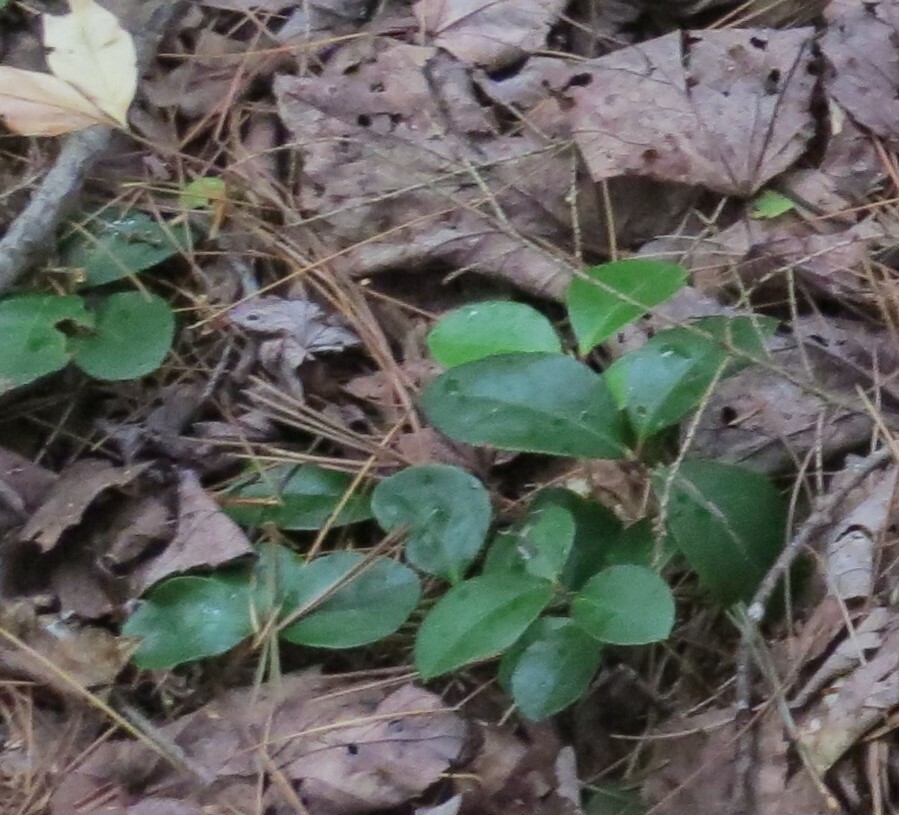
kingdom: Plantae
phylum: Tracheophyta
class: Magnoliopsida
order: Ericales
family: Ericaceae
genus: Gaultheria
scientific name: Gaultheria procumbens
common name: Checkerberry
